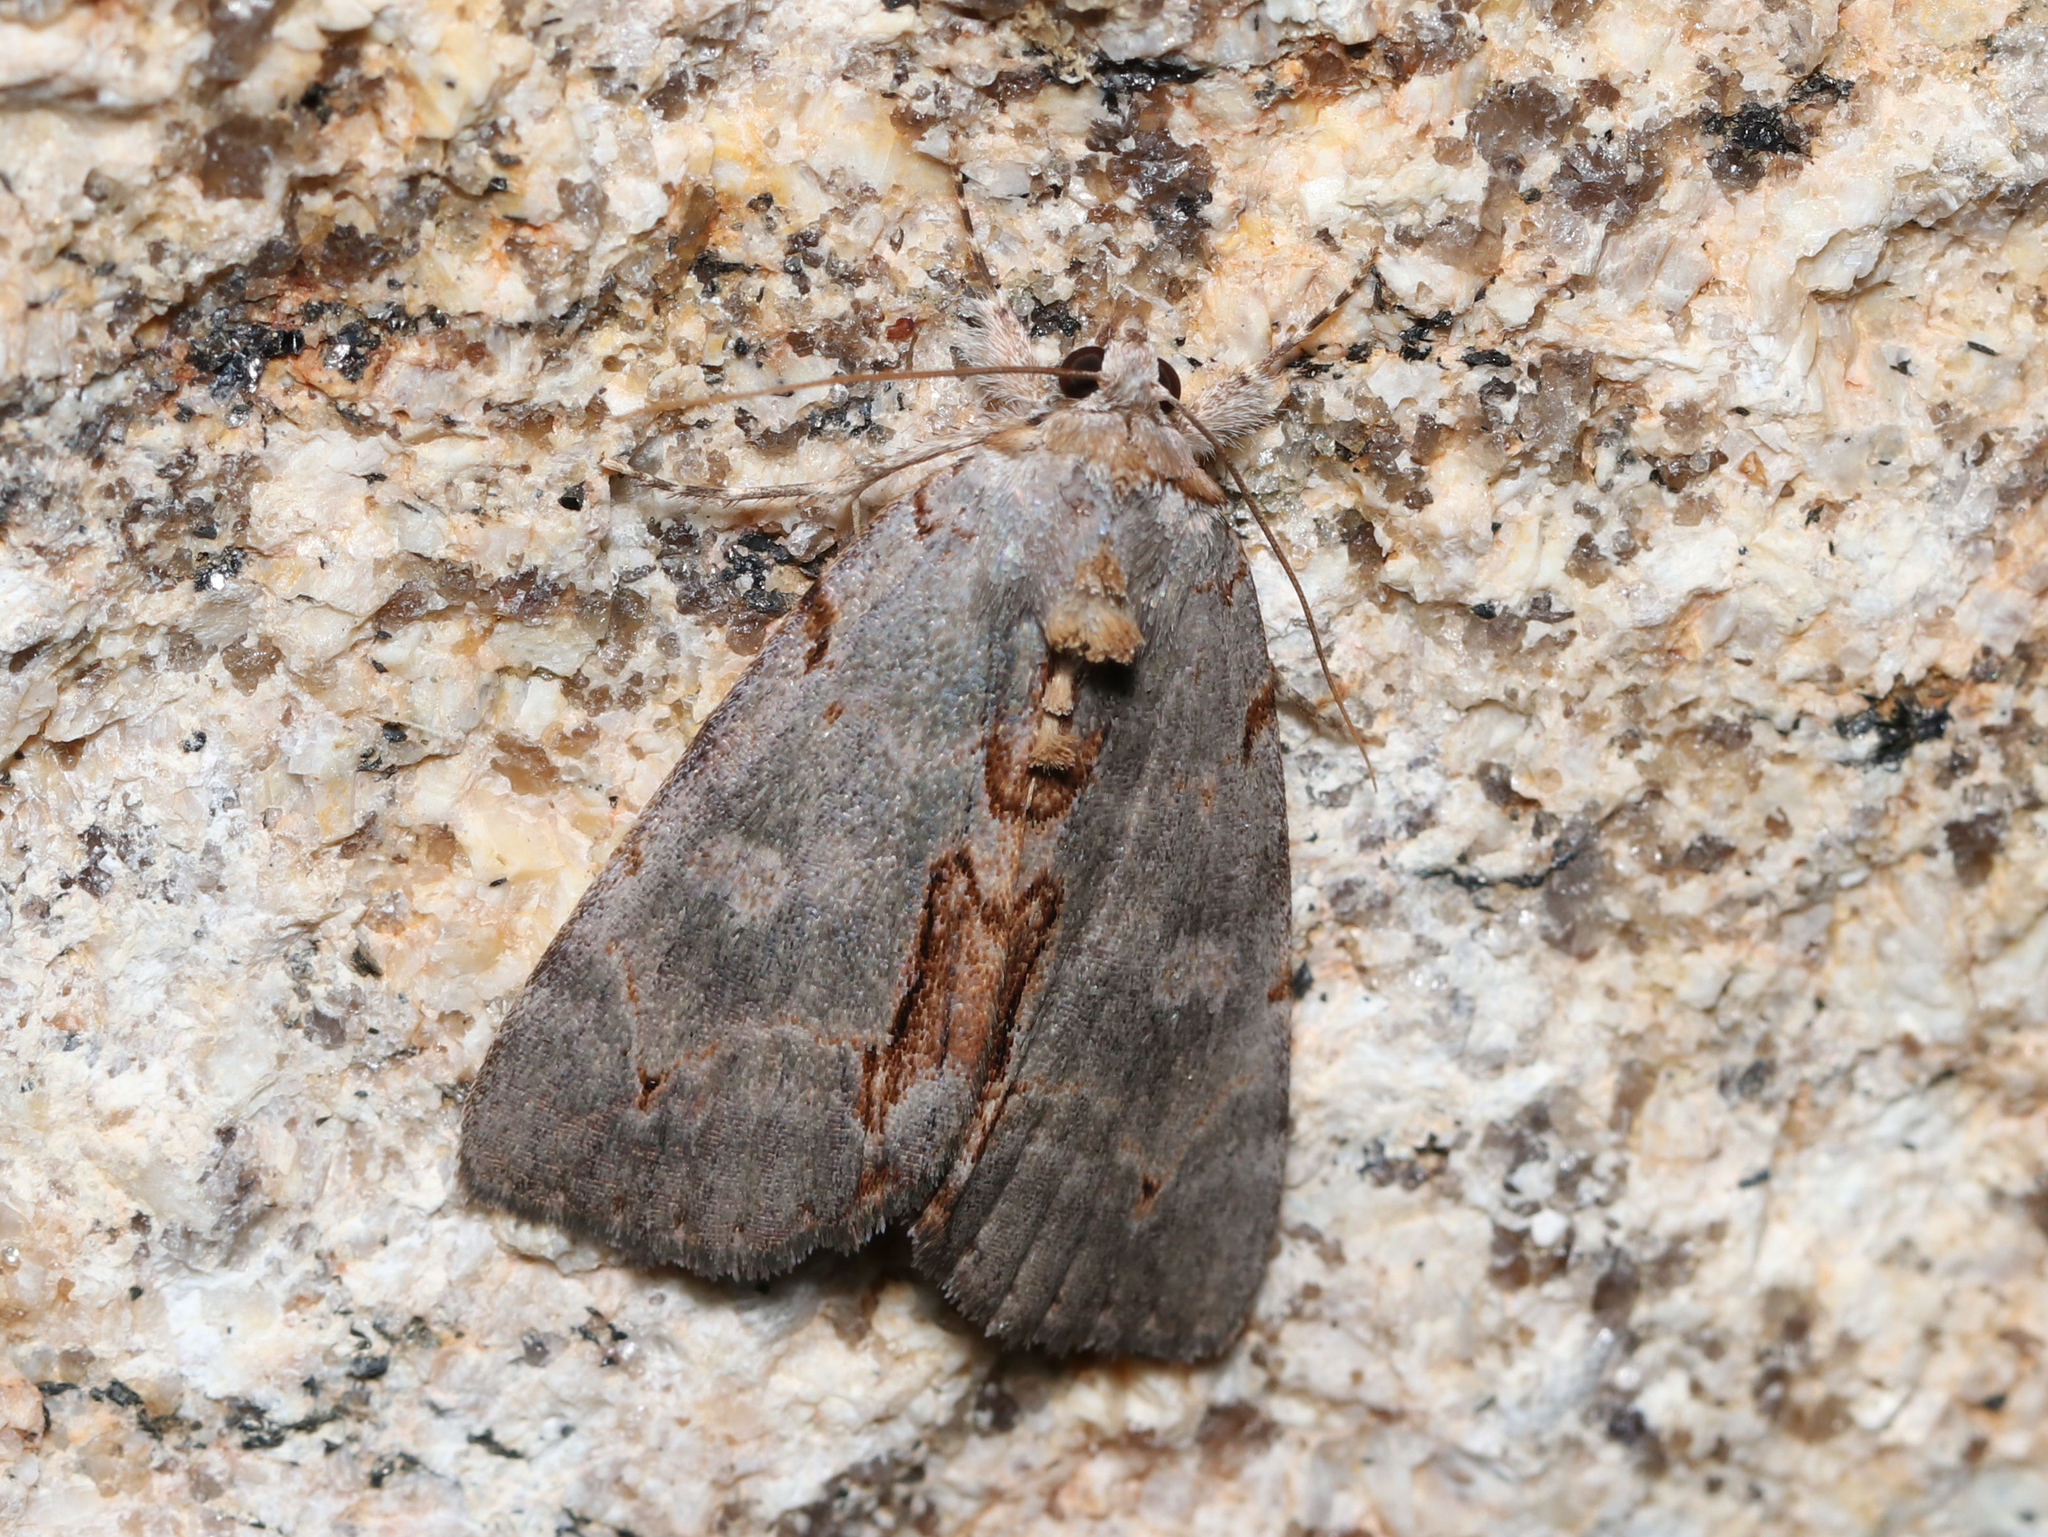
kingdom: Animalia
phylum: Arthropoda
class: Insecta
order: Lepidoptera
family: Erebidae
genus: Catocala
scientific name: Catocala grynea
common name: Woody underwing
